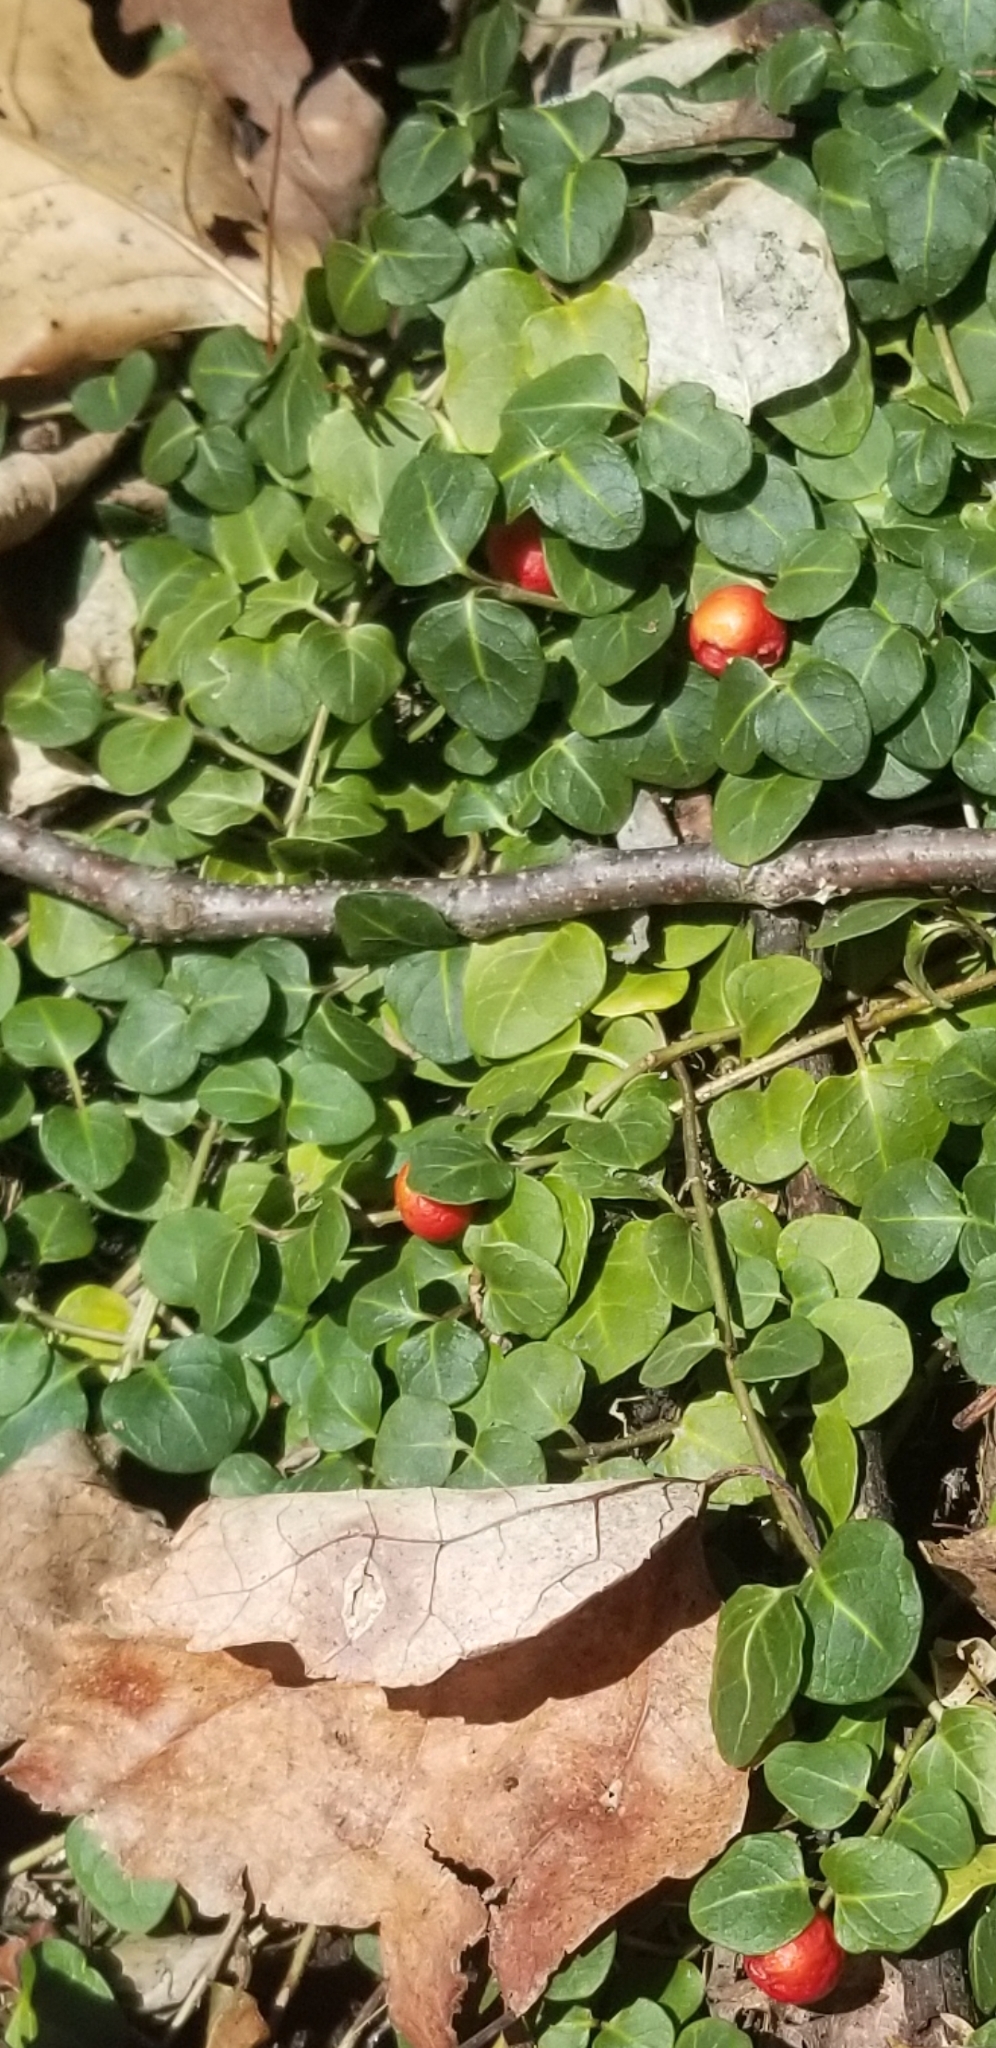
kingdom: Plantae
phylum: Tracheophyta
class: Magnoliopsida
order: Gentianales
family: Rubiaceae
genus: Mitchella
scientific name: Mitchella repens
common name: Partridge-berry
